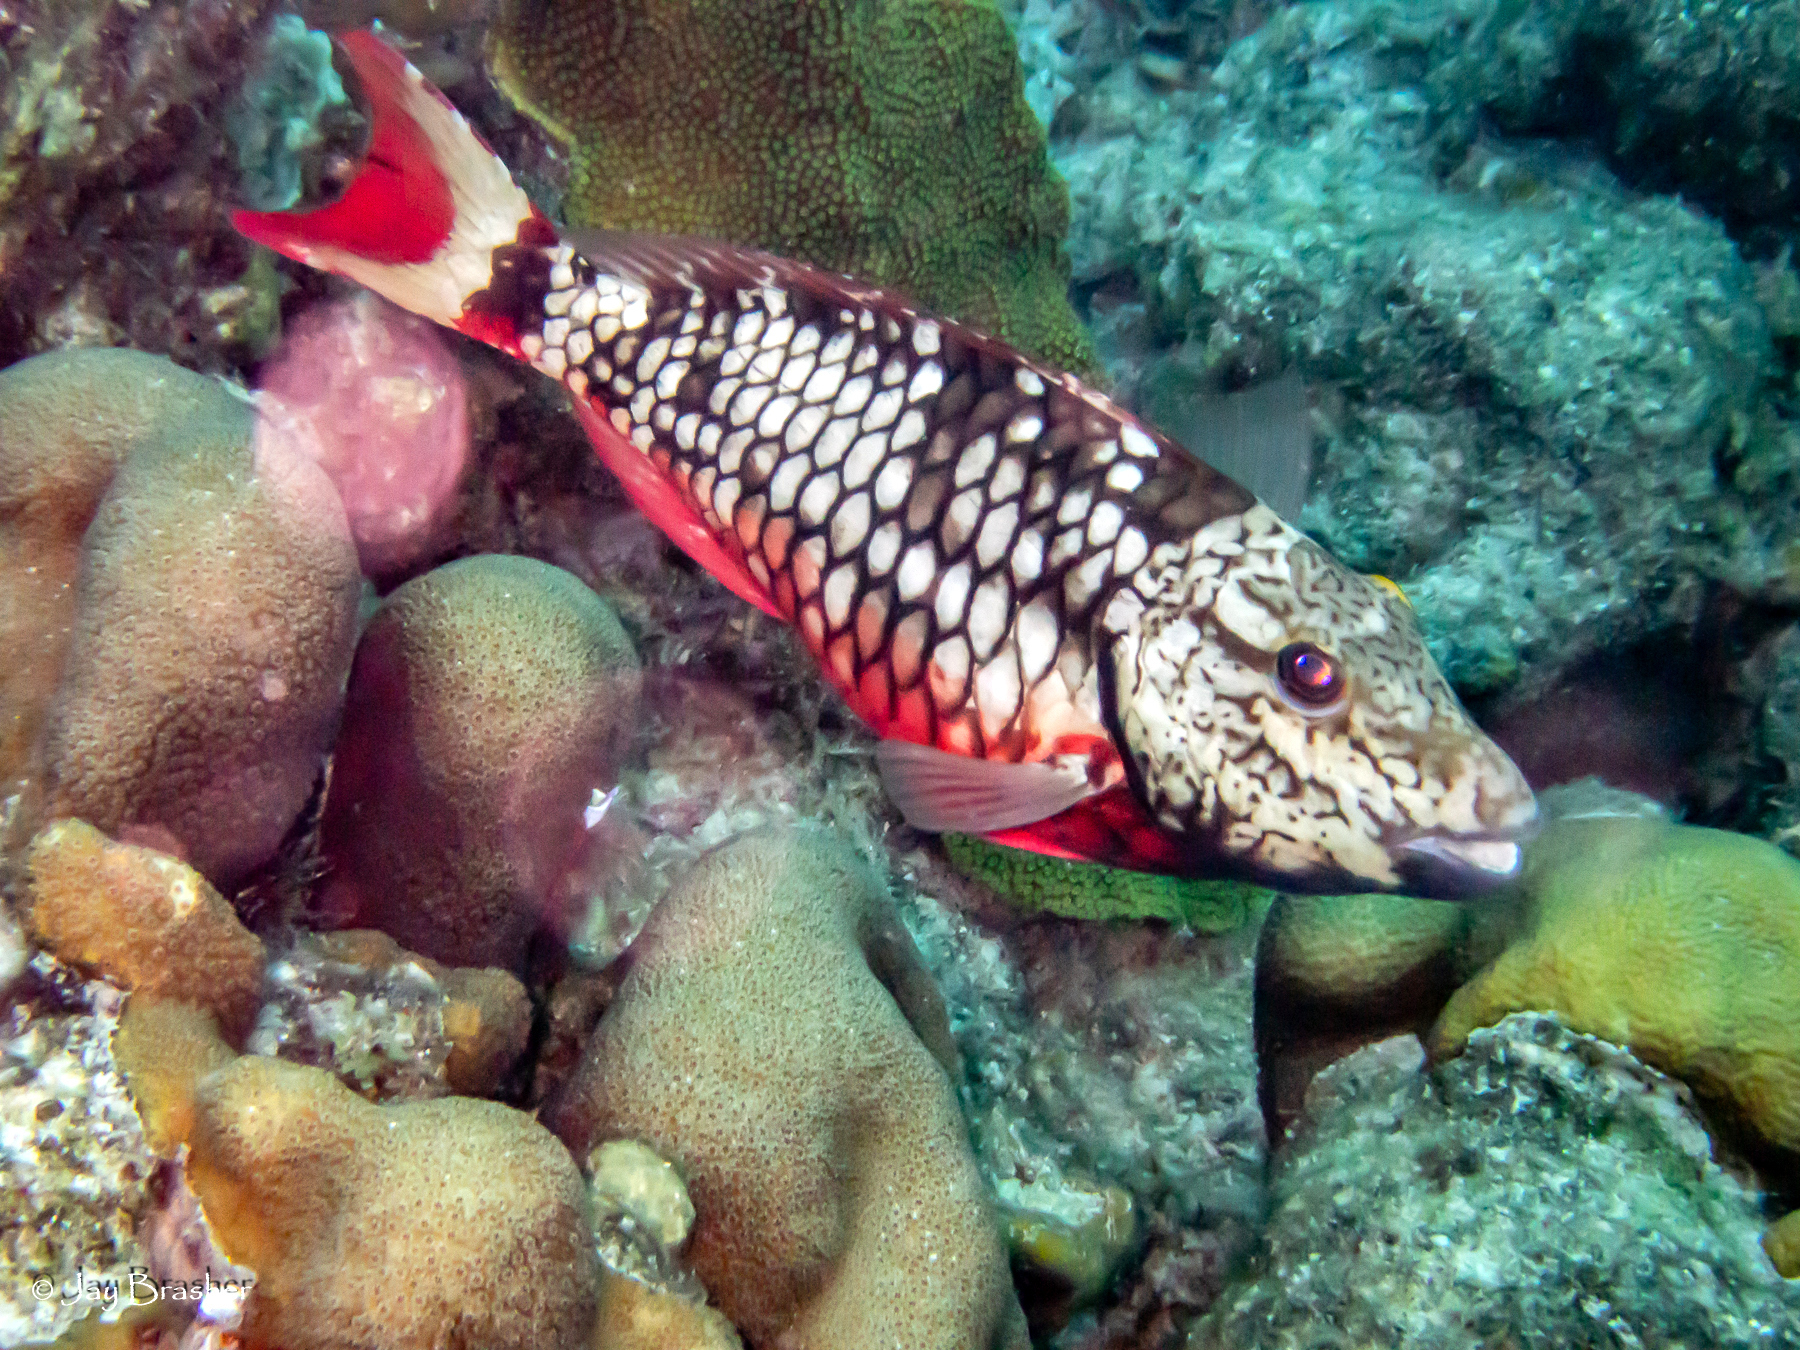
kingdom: Animalia
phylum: Chordata
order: Perciformes
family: Scaridae
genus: Sparisoma
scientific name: Sparisoma viride
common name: Stoplight parrotfish
